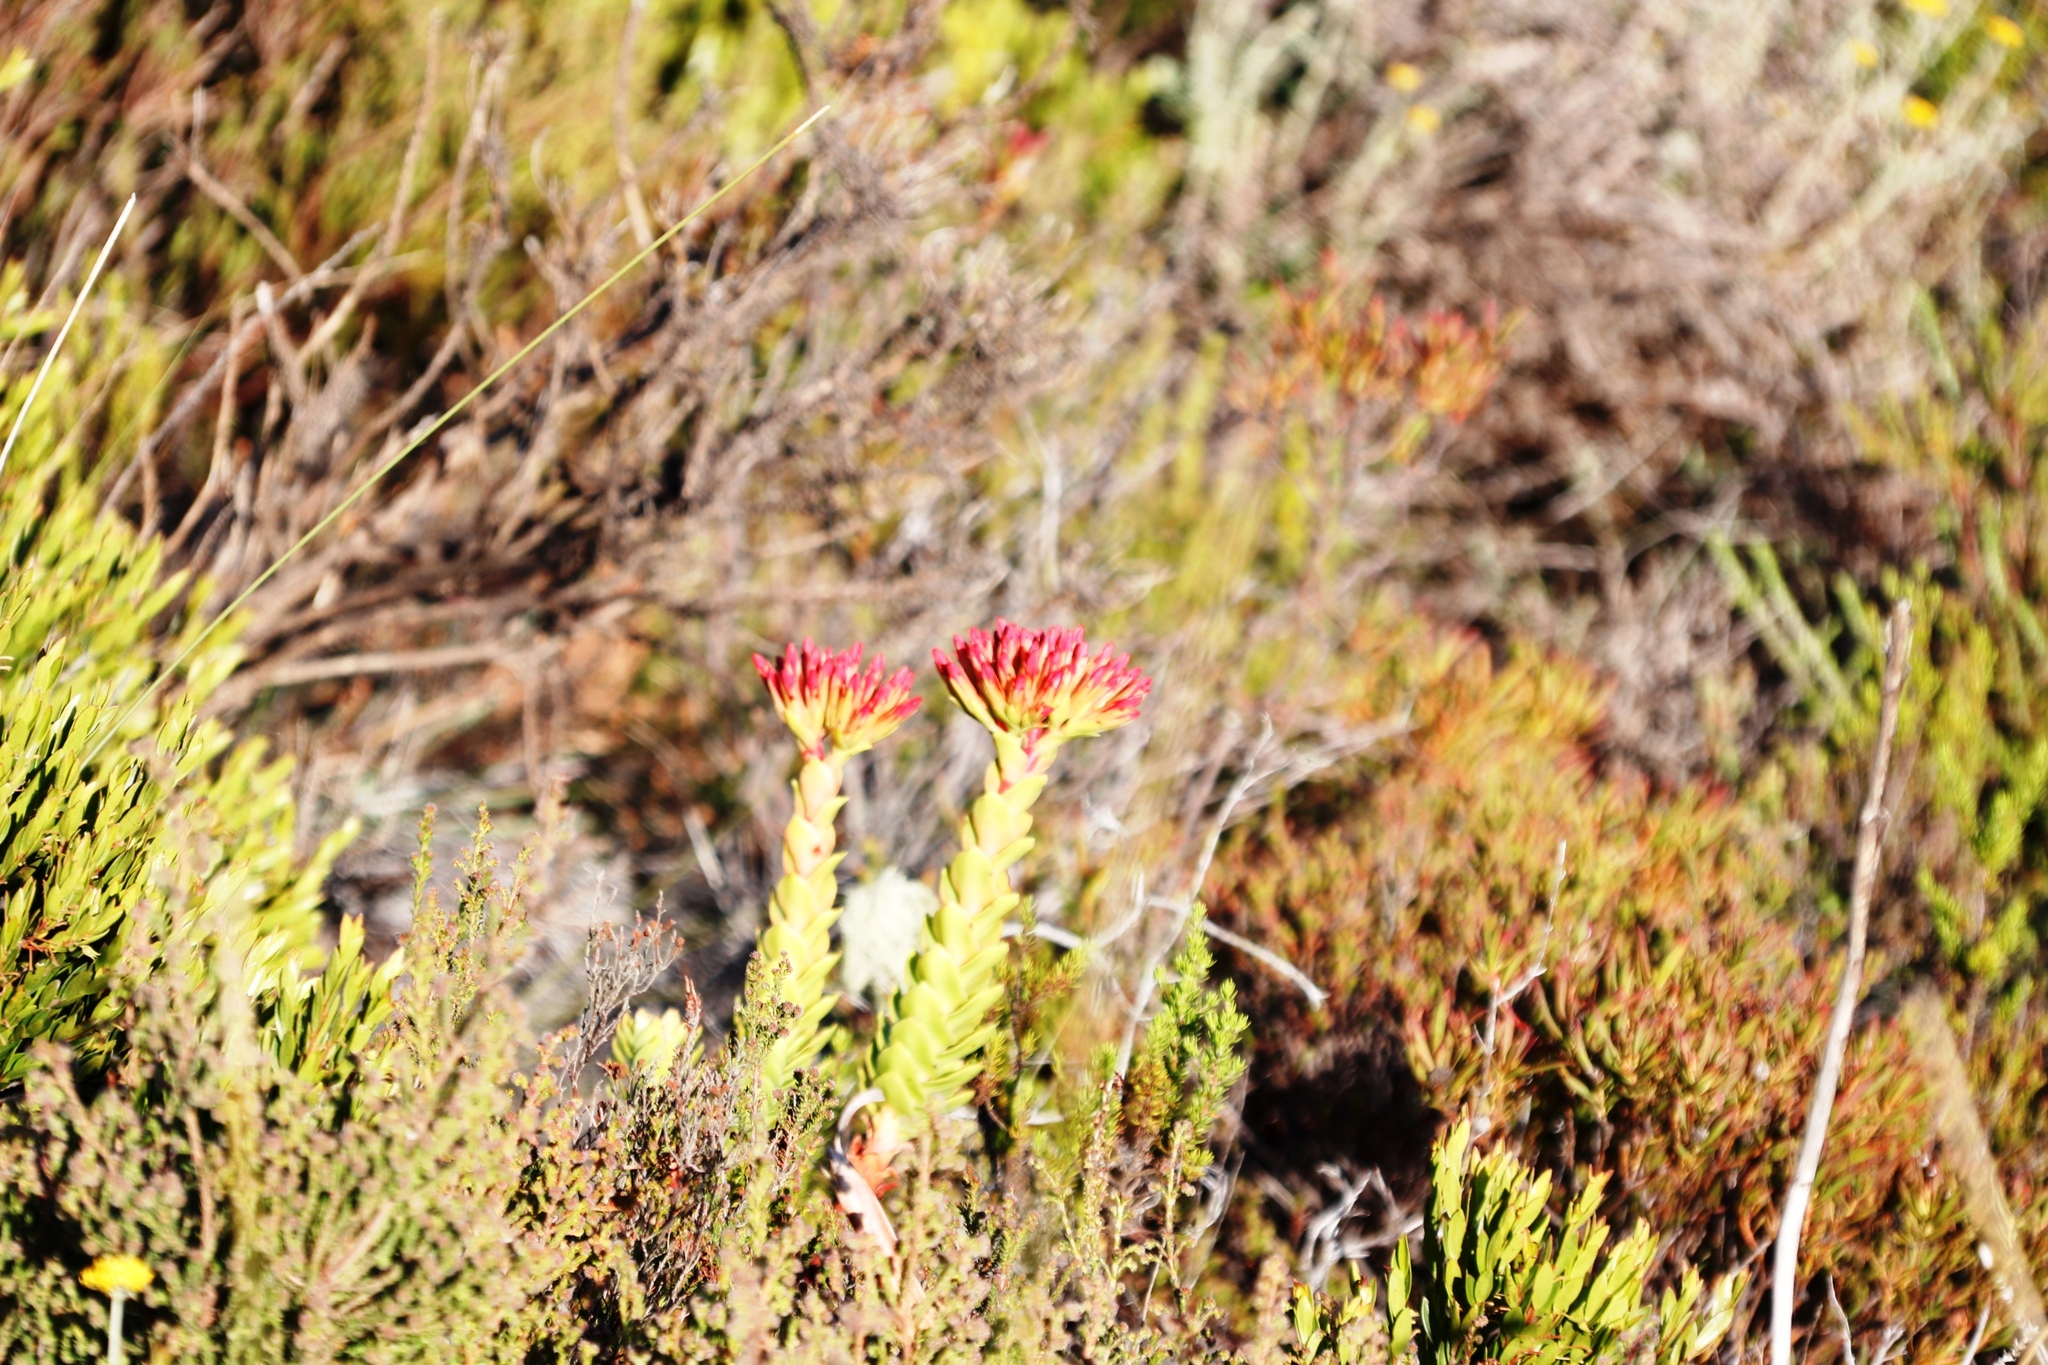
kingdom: Plantae
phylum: Tracheophyta
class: Magnoliopsida
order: Saxifragales
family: Crassulaceae
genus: Crassula
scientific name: Crassula coccinea
